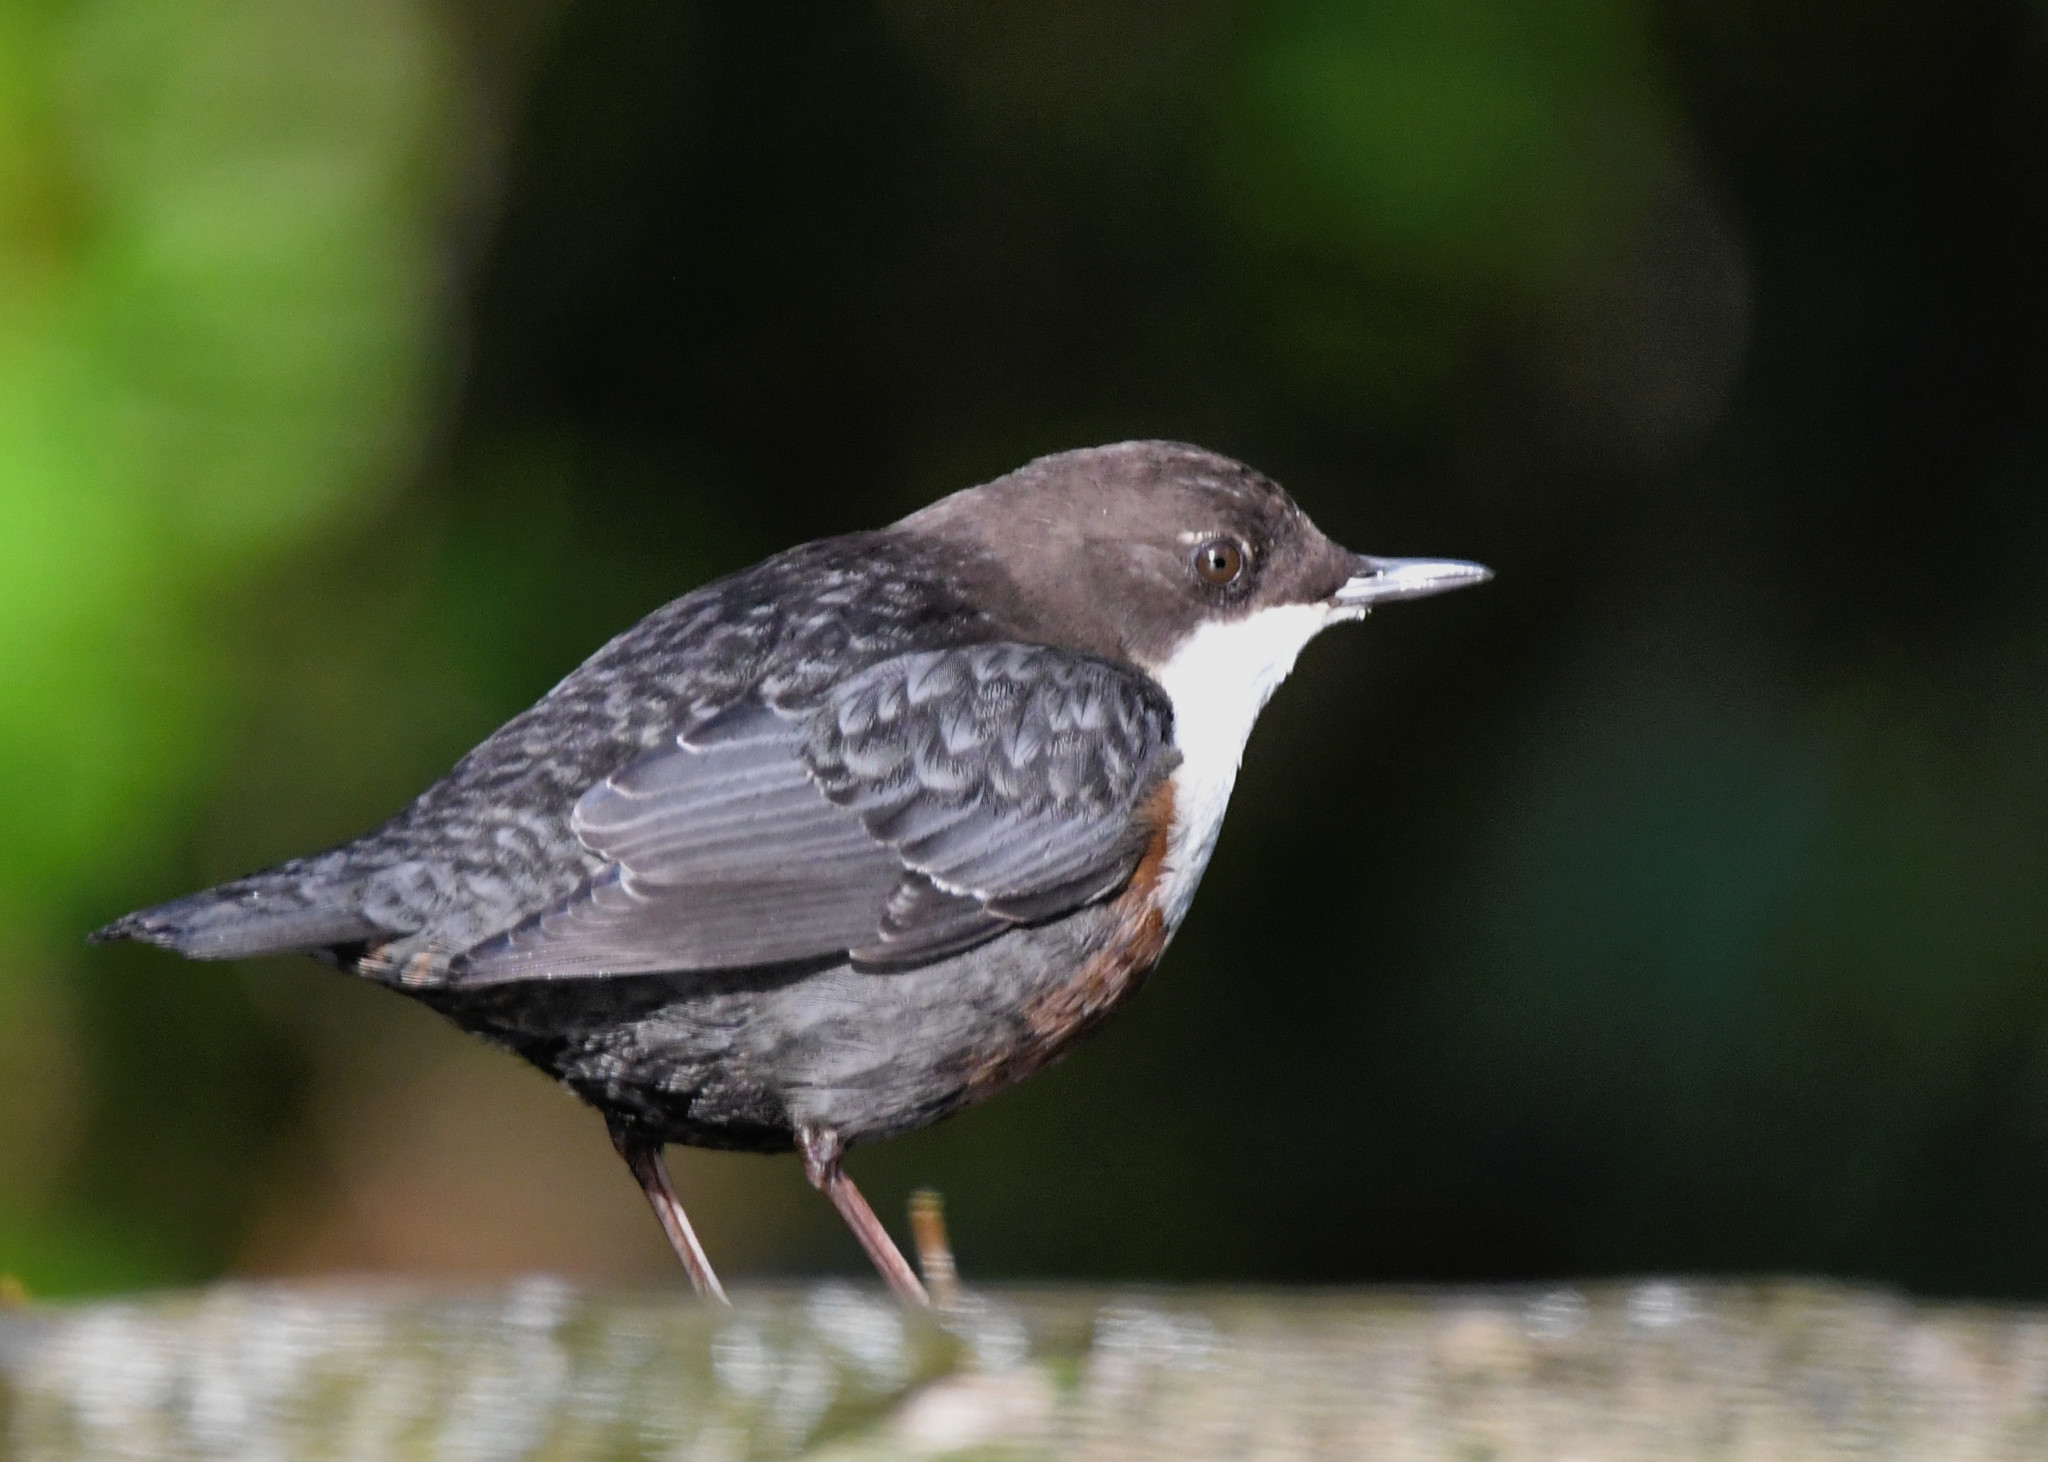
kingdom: Animalia
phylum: Chordata
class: Aves
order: Passeriformes
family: Cinclidae
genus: Cinclus
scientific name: Cinclus cinclus
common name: White-throated dipper
